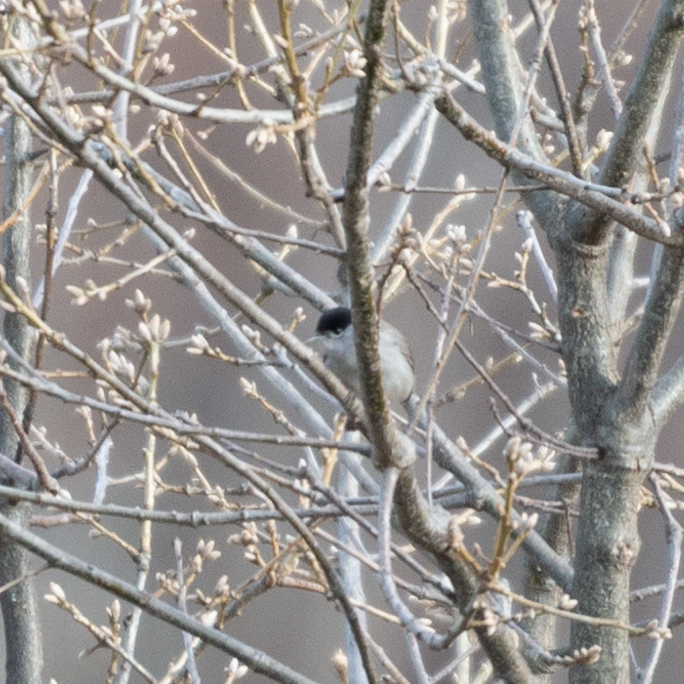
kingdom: Animalia
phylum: Chordata
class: Aves
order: Passeriformes
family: Sylviidae
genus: Sylvia
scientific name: Sylvia atricapilla
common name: Eurasian blackcap
